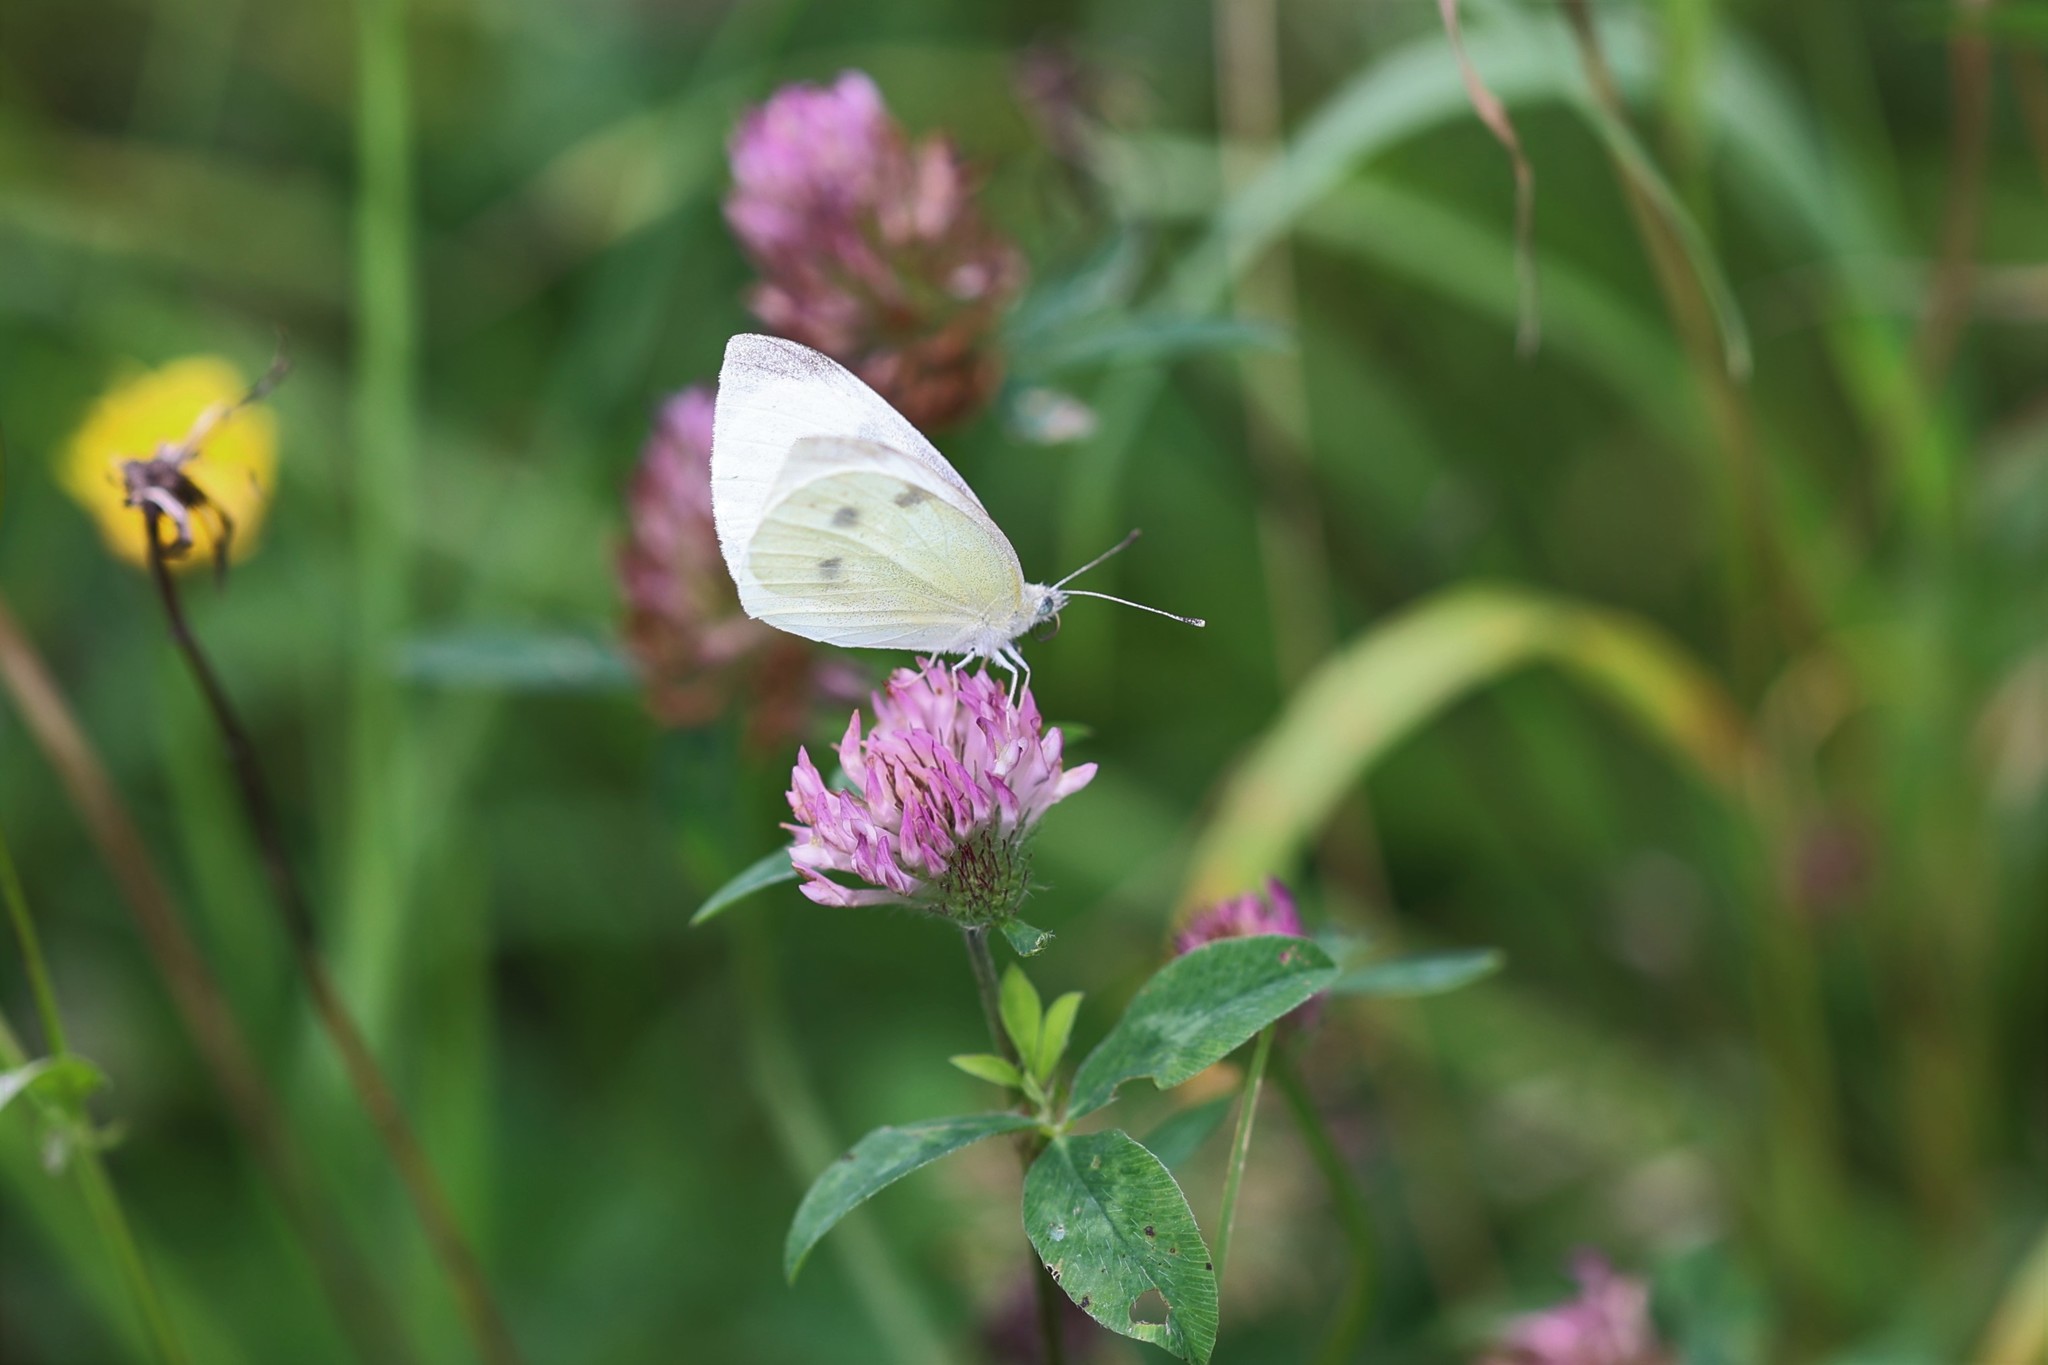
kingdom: Animalia
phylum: Arthropoda
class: Insecta
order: Lepidoptera
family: Pieridae
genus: Pieris
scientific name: Pieris rapae
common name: Small white
